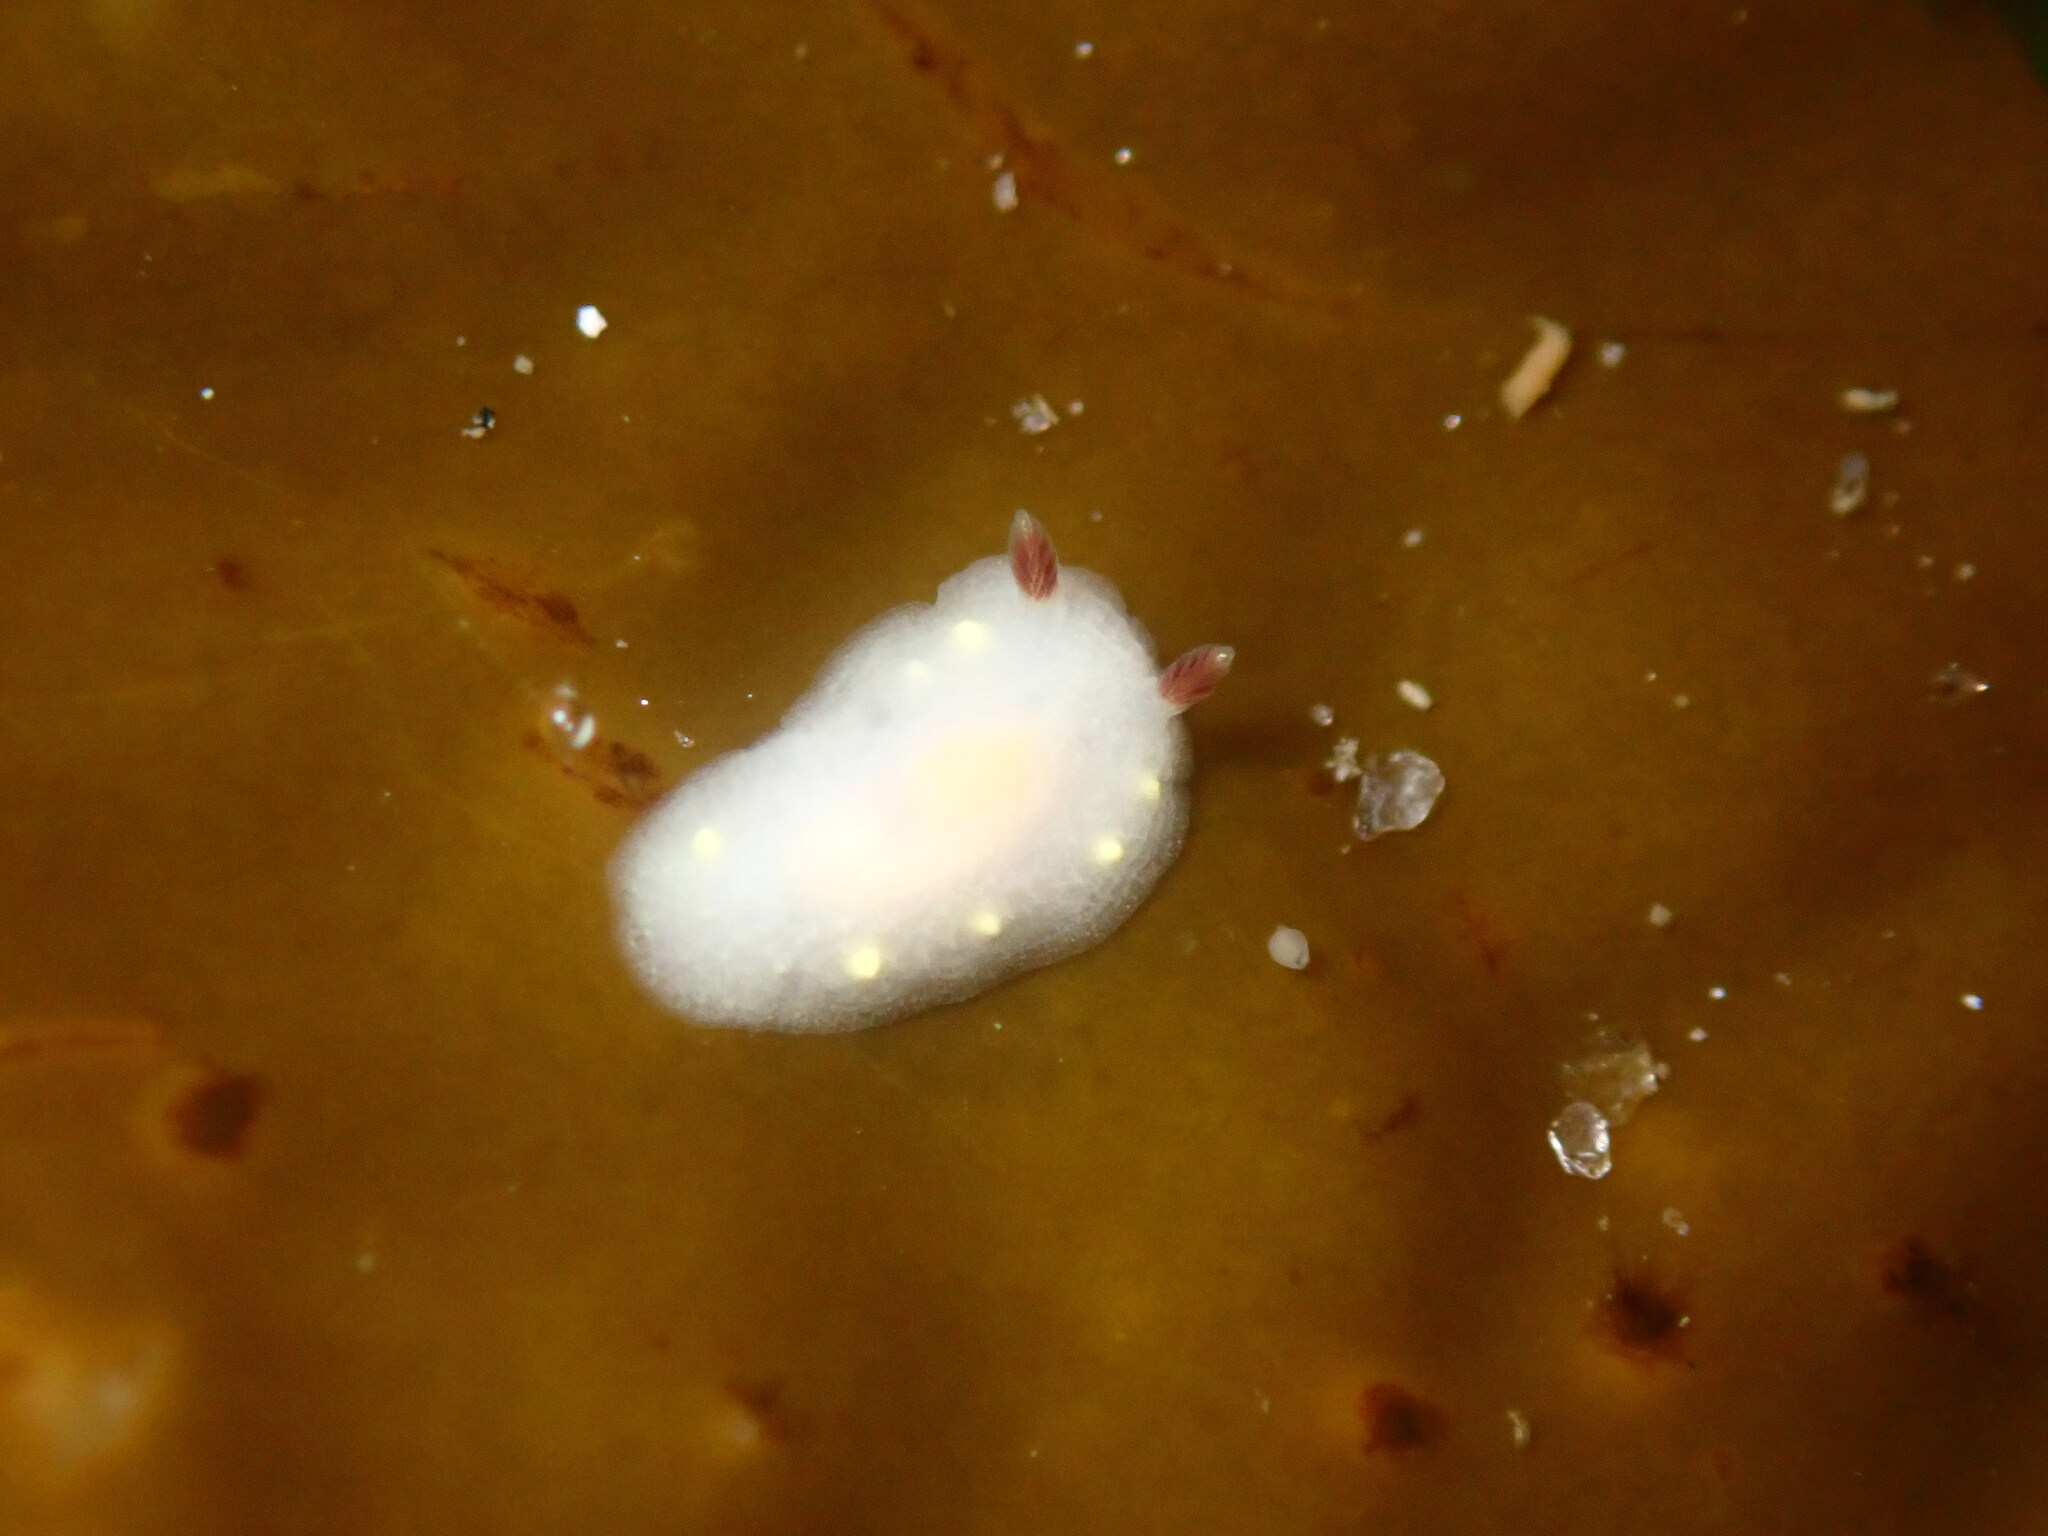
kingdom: Animalia
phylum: Mollusca
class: Gastropoda
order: Nudibranchia
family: Cadlinidae
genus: Cadlina
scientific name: Cadlina flavomaculata
